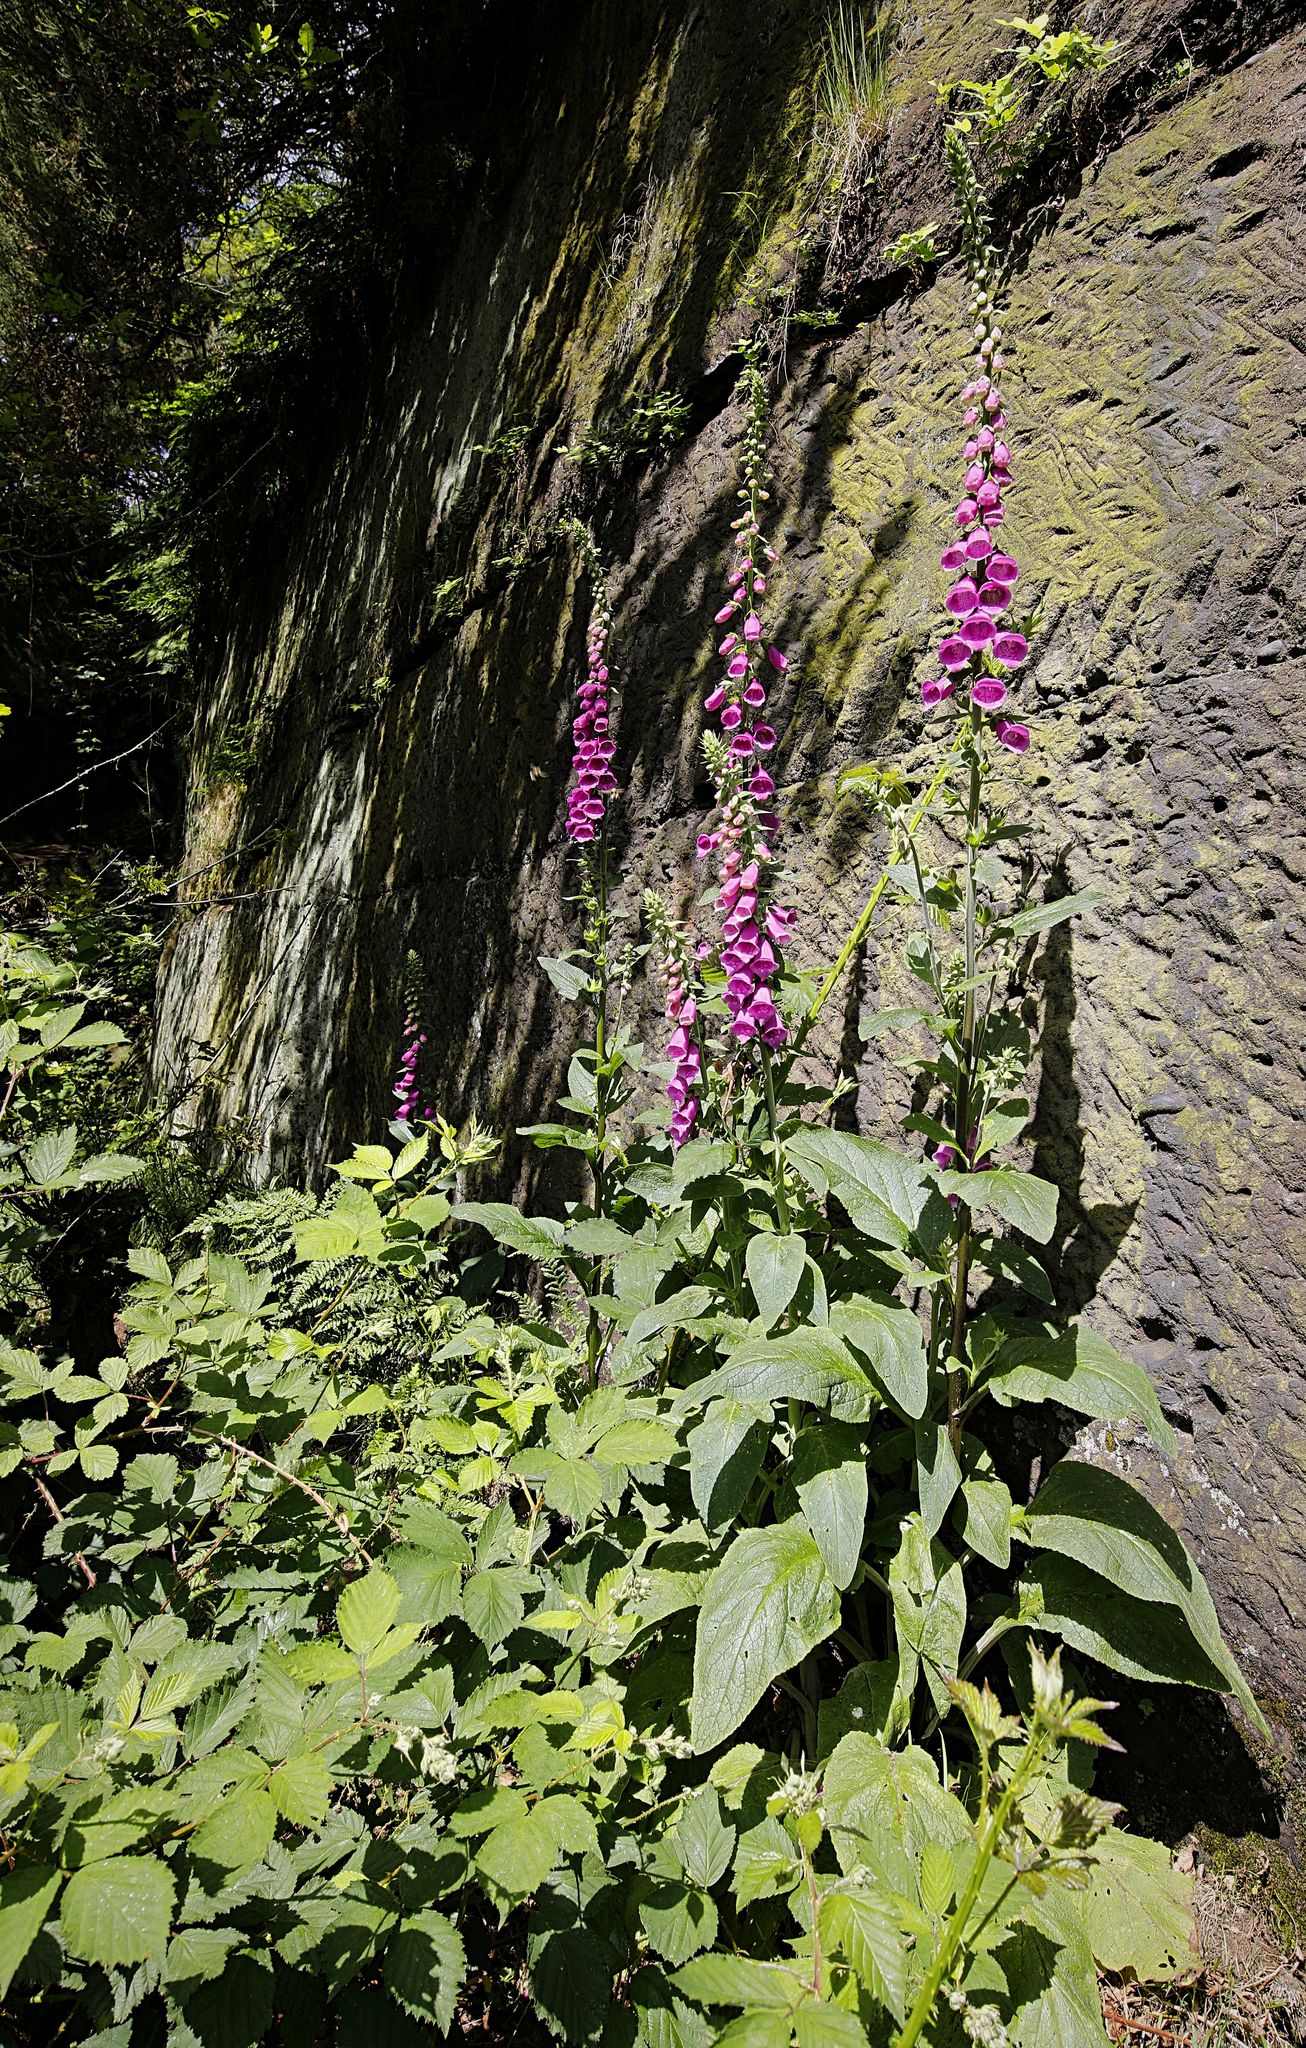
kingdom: Plantae
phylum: Tracheophyta
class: Magnoliopsida
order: Lamiales
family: Plantaginaceae
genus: Digitalis
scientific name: Digitalis purpurea
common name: Foxglove
